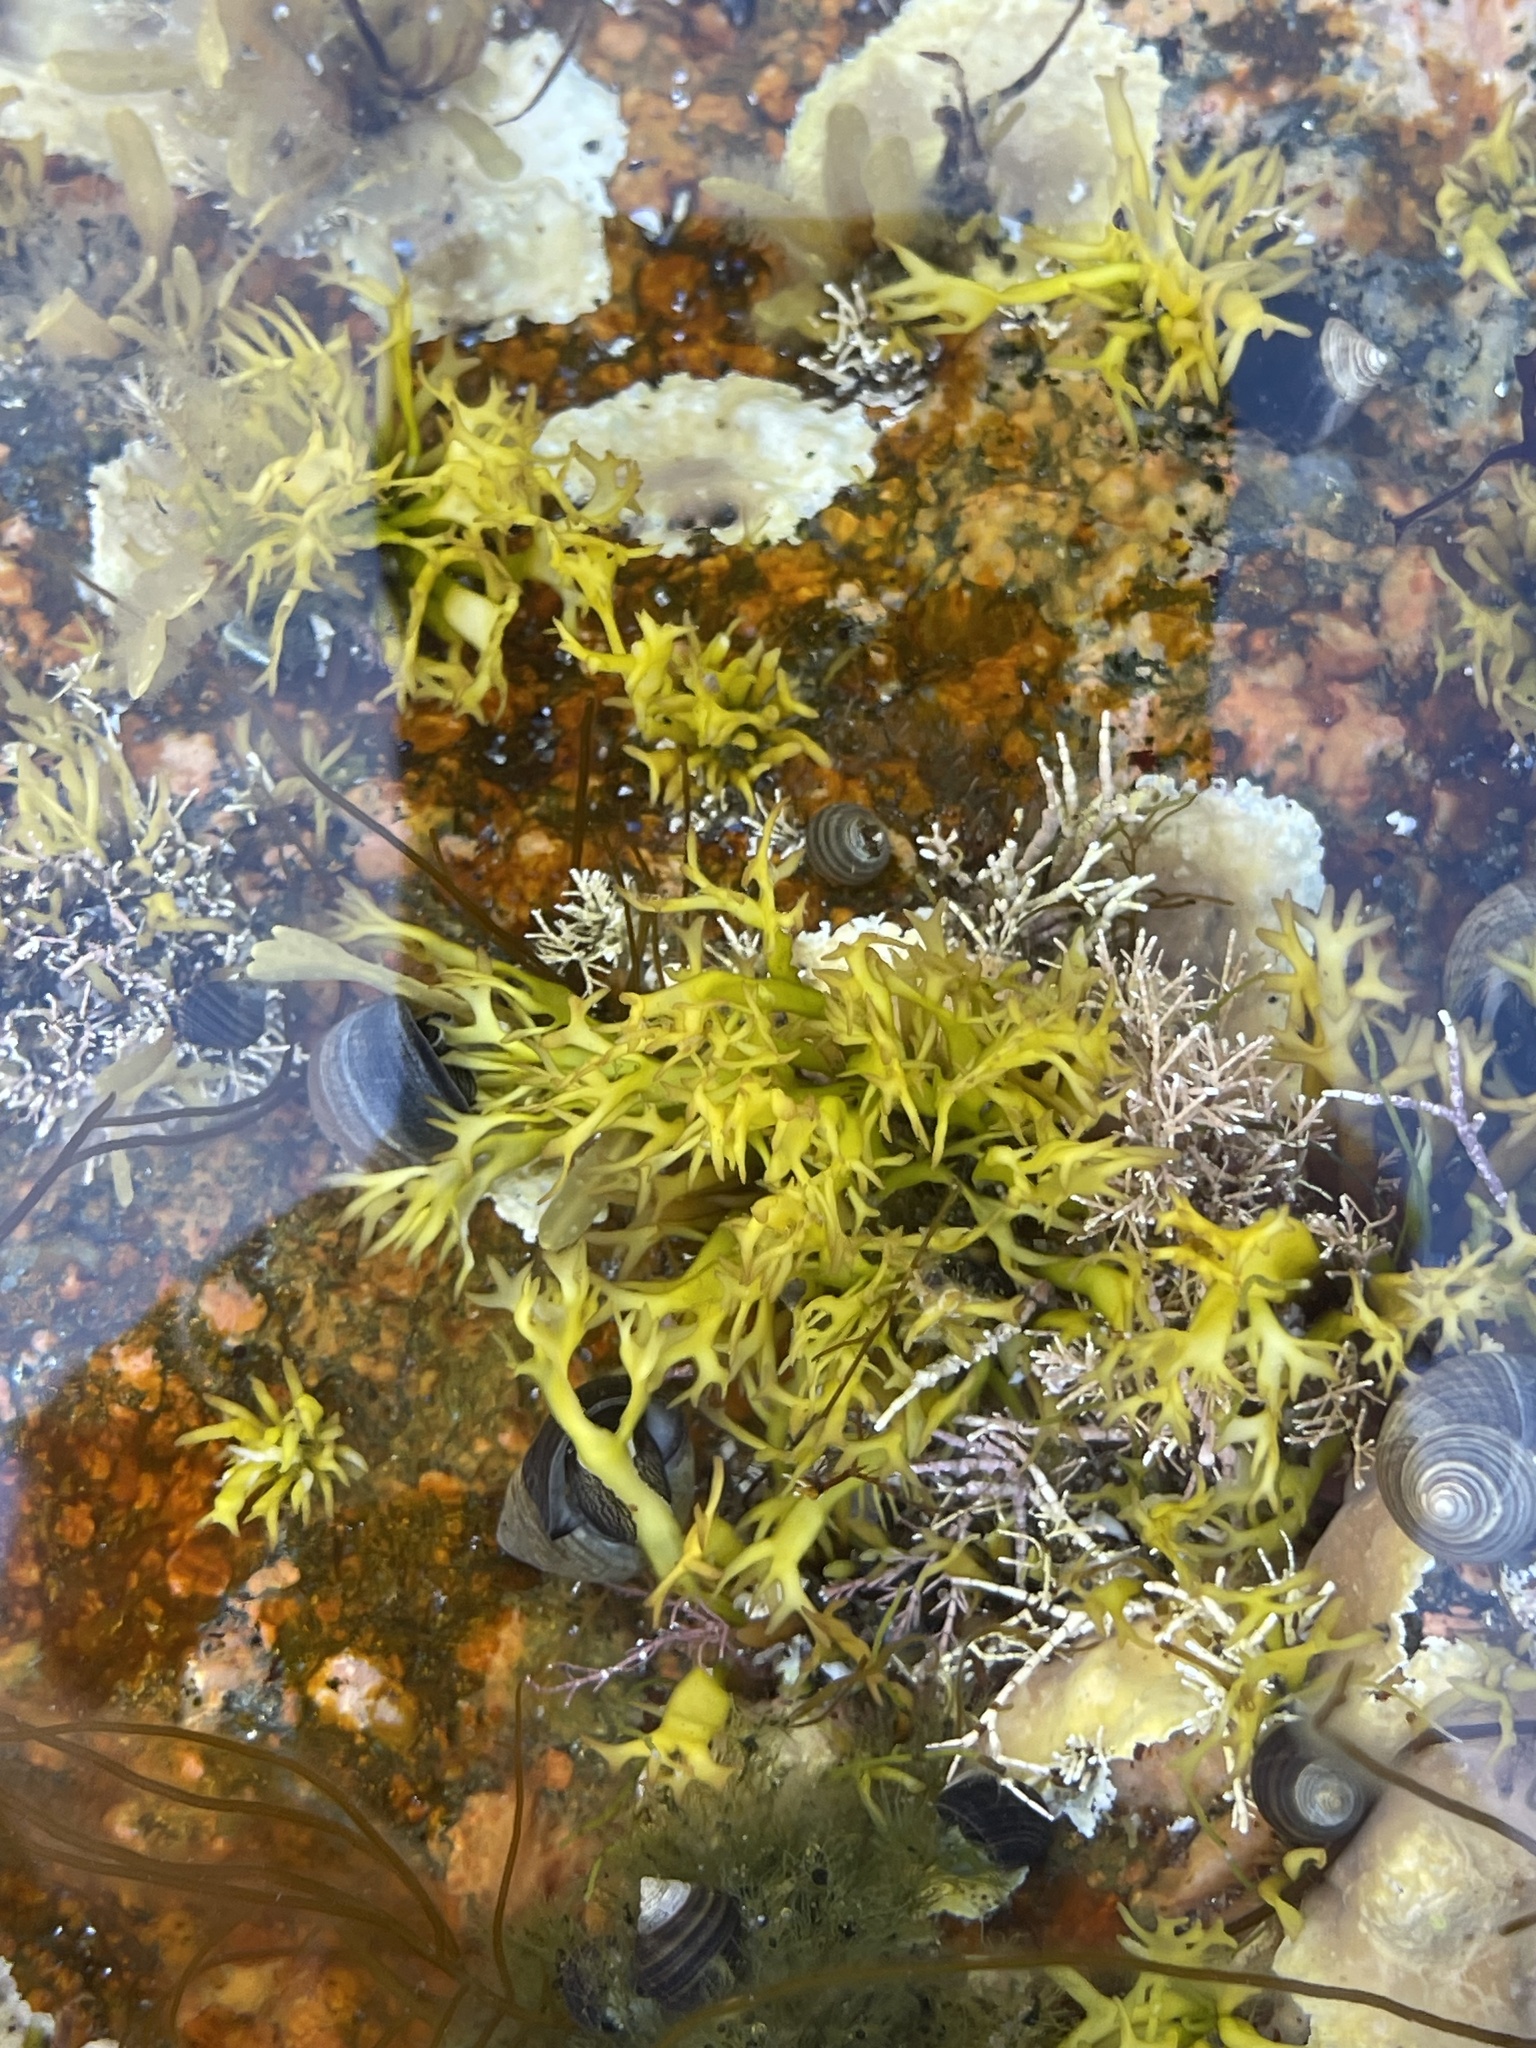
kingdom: Plantae
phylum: Rhodophyta
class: Florideophyceae
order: Gigartinales
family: Gigartinaceae
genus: Chondrus
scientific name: Chondrus crispus
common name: Carrageen
